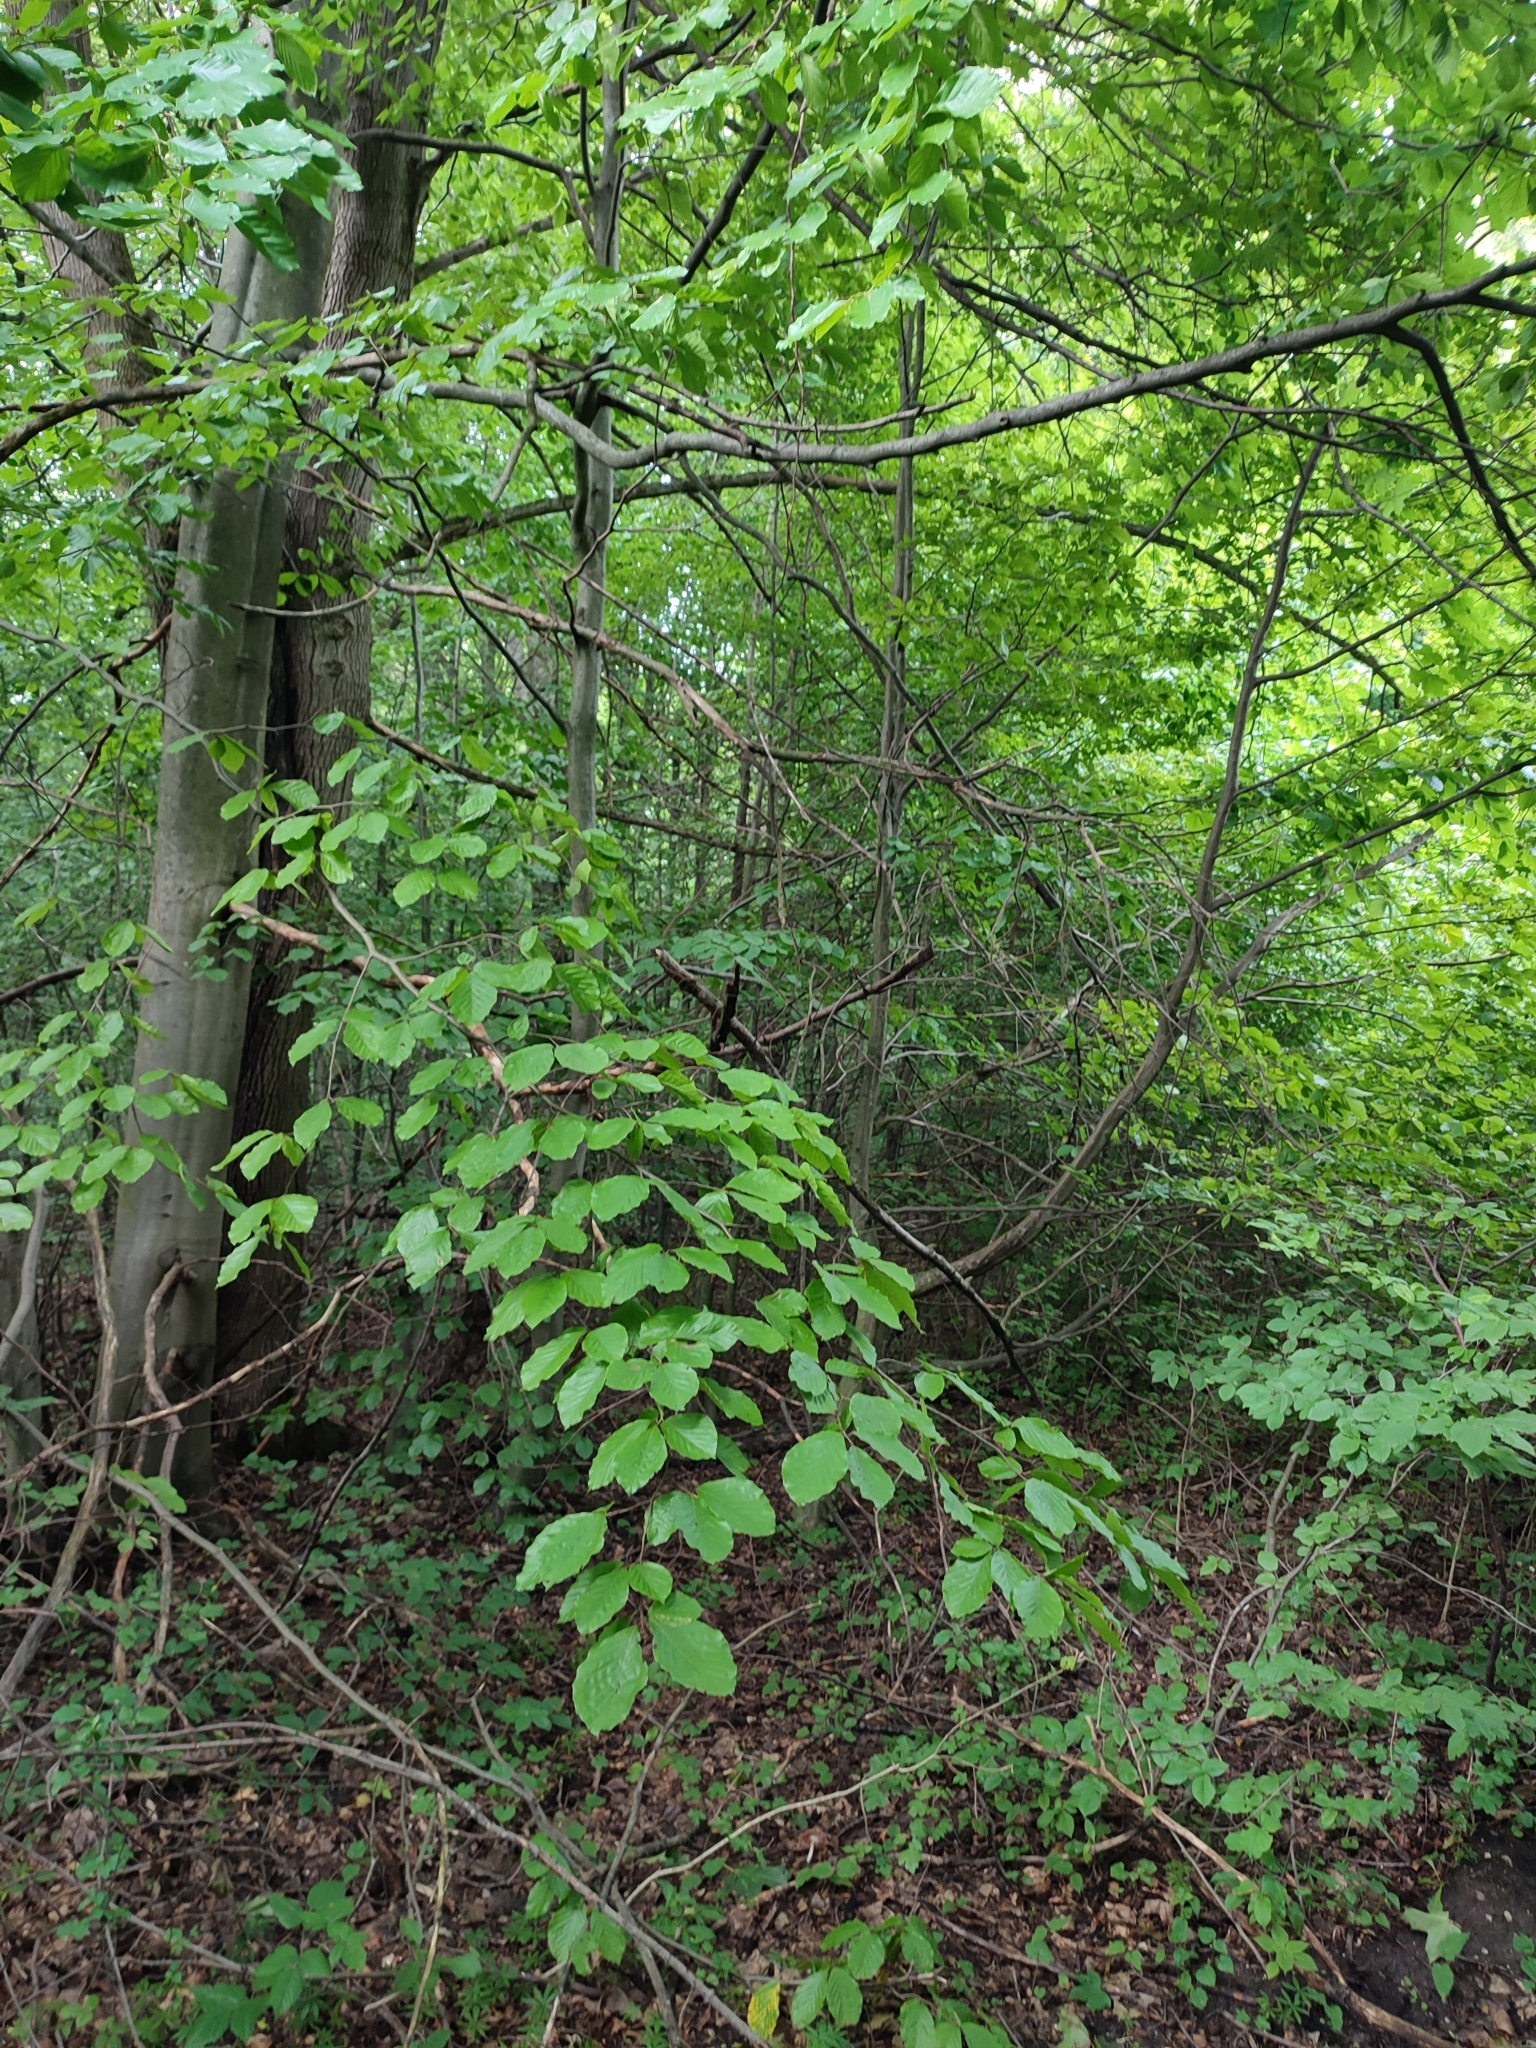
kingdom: Plantae
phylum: Tracheophyta
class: Magnoliopsida
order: Fagales
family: Fagaceae
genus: Fagus
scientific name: Fagus sylvatica
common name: Beech
